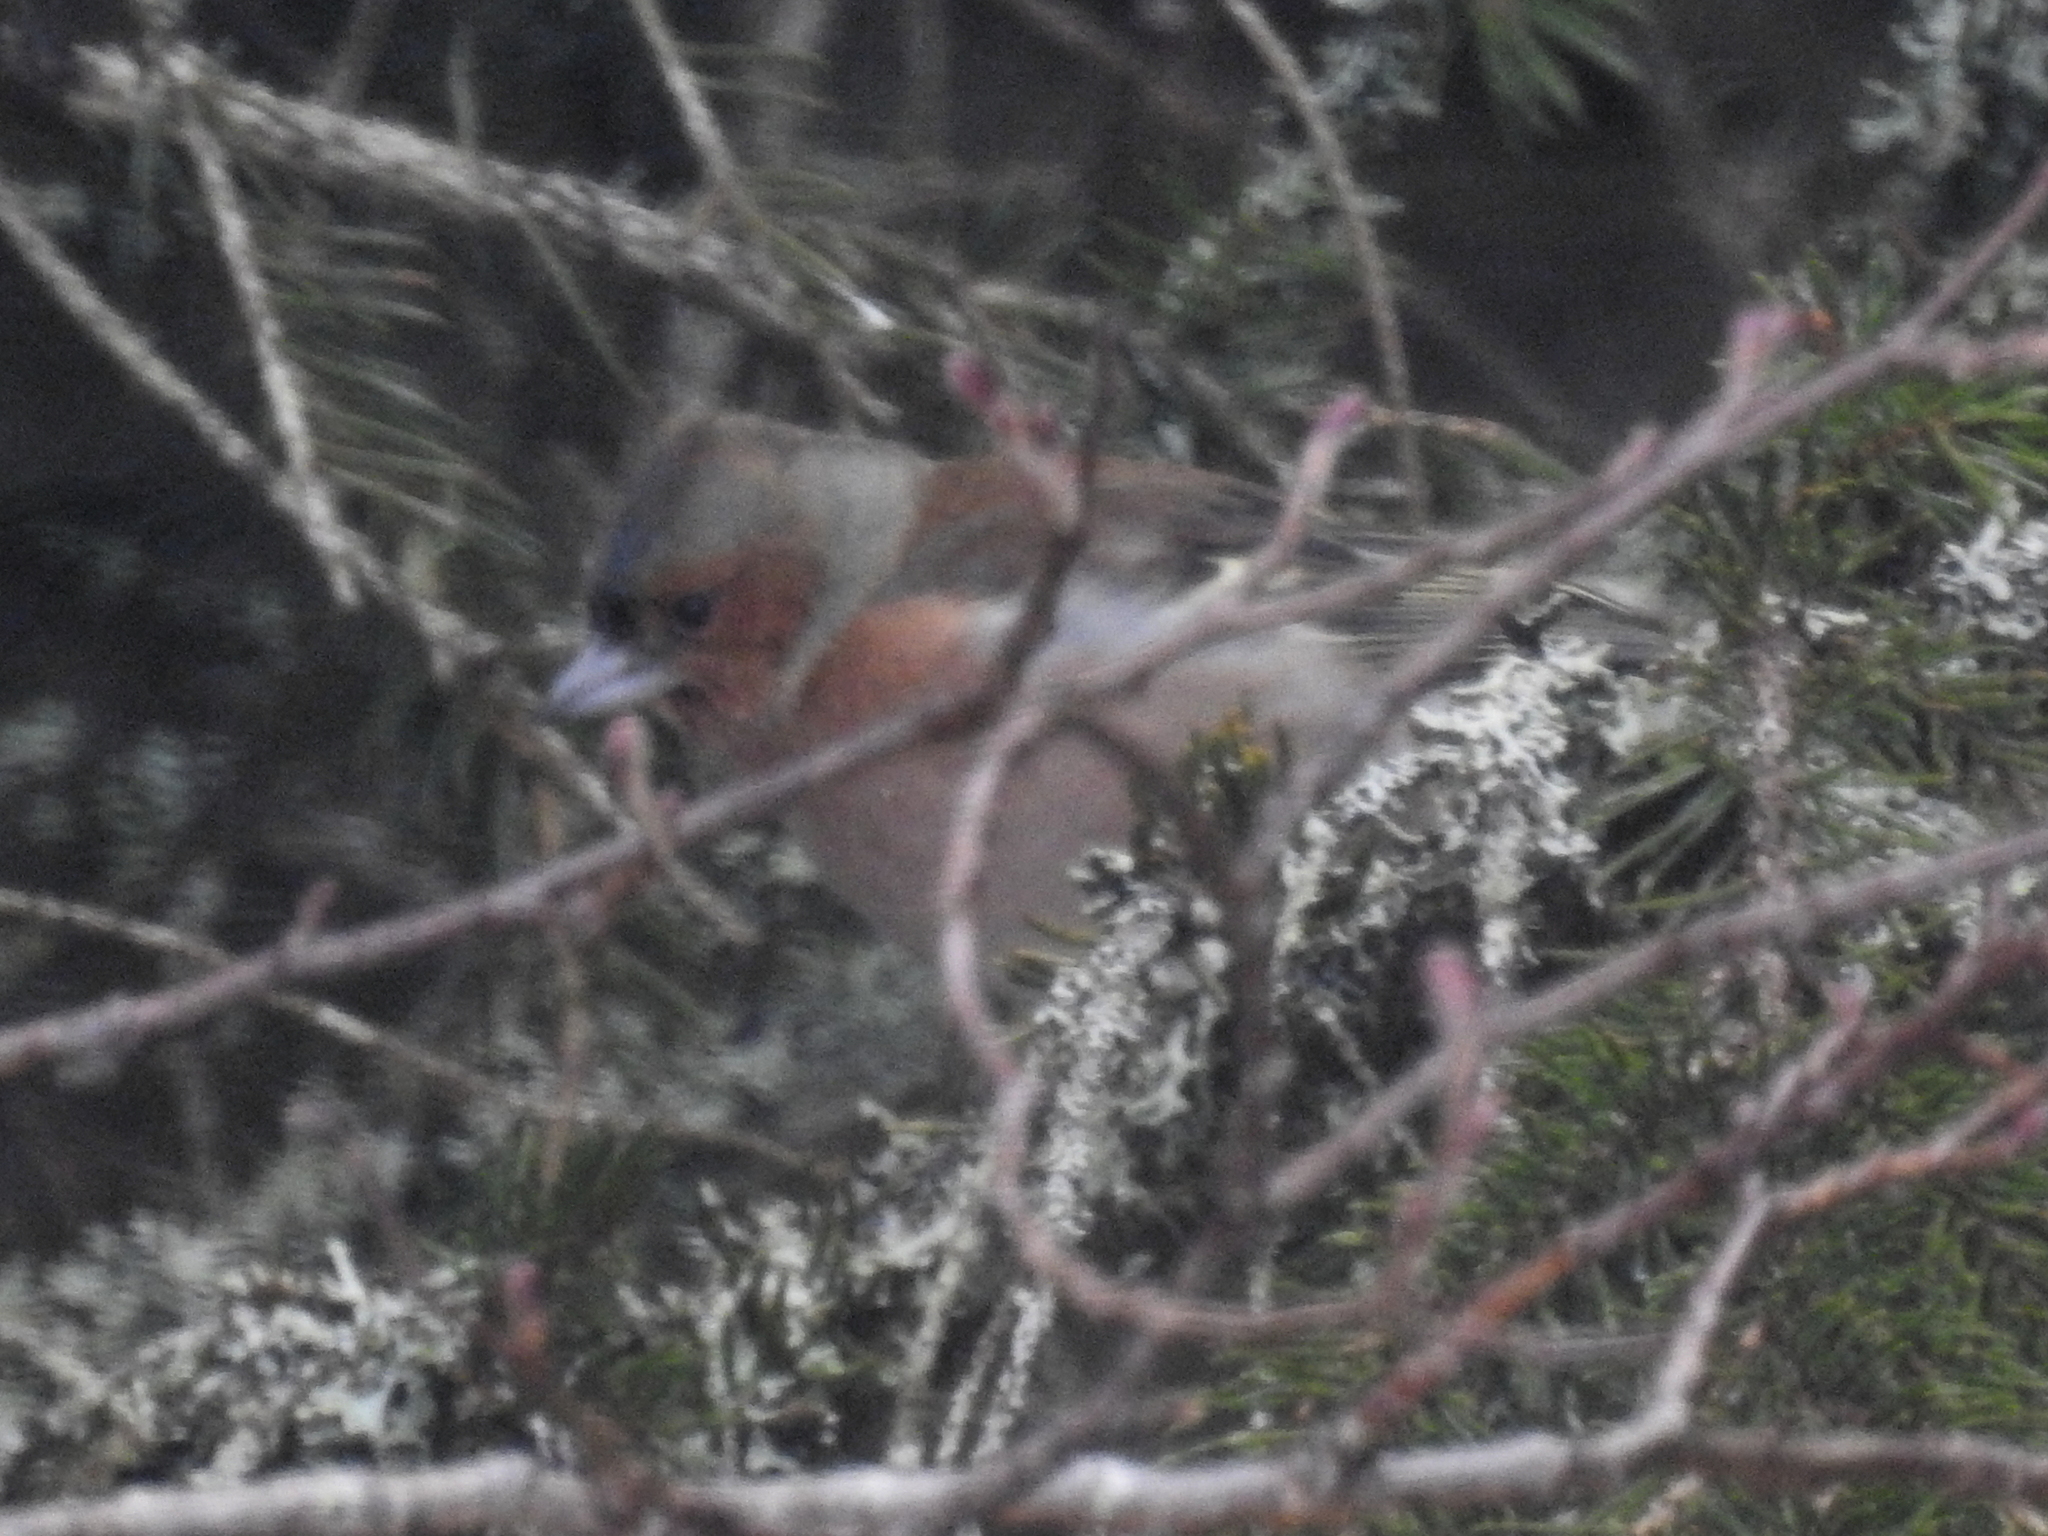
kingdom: Animalia
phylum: Chordata
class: Aves
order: Passeriformes
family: Fringillidae
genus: Fringilla
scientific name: Fringilla coelebs
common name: Common chaffinch
